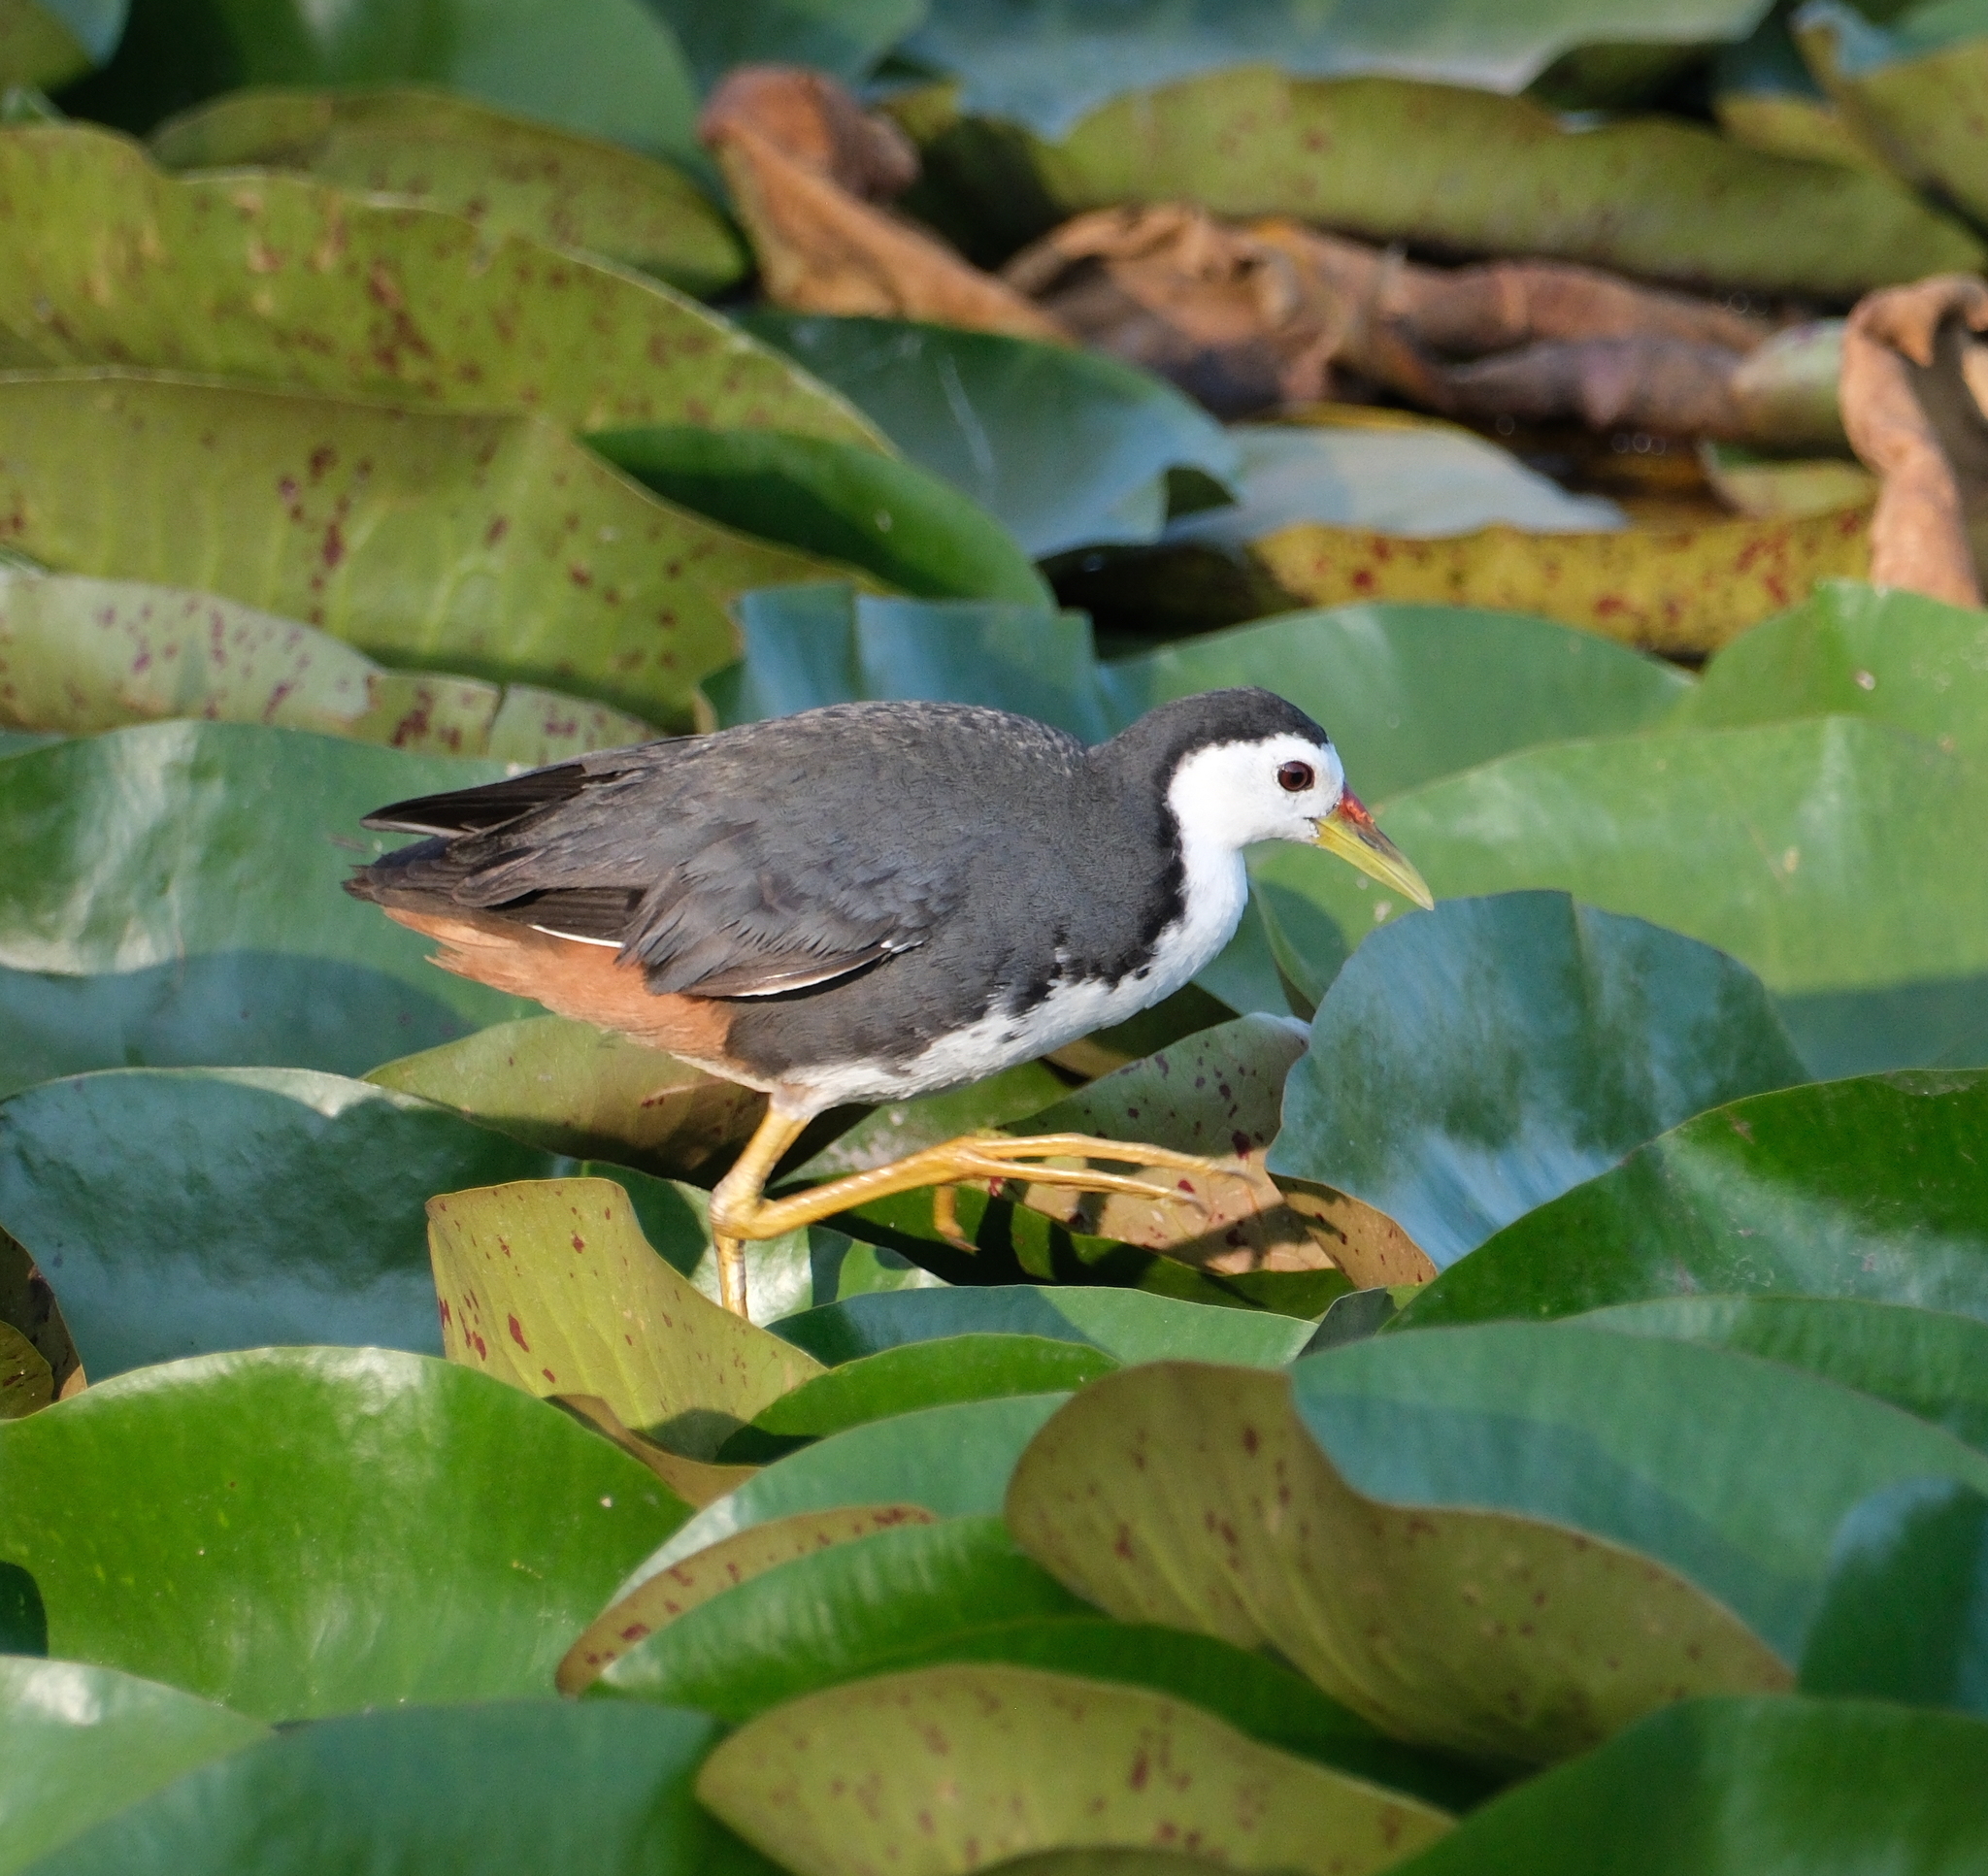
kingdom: Animalia
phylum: Chordata
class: Aves
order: Gruiformes
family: Rallidae
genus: Amaurornis
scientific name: Amaurornis phoenicurus
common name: White-breasted waterhen
